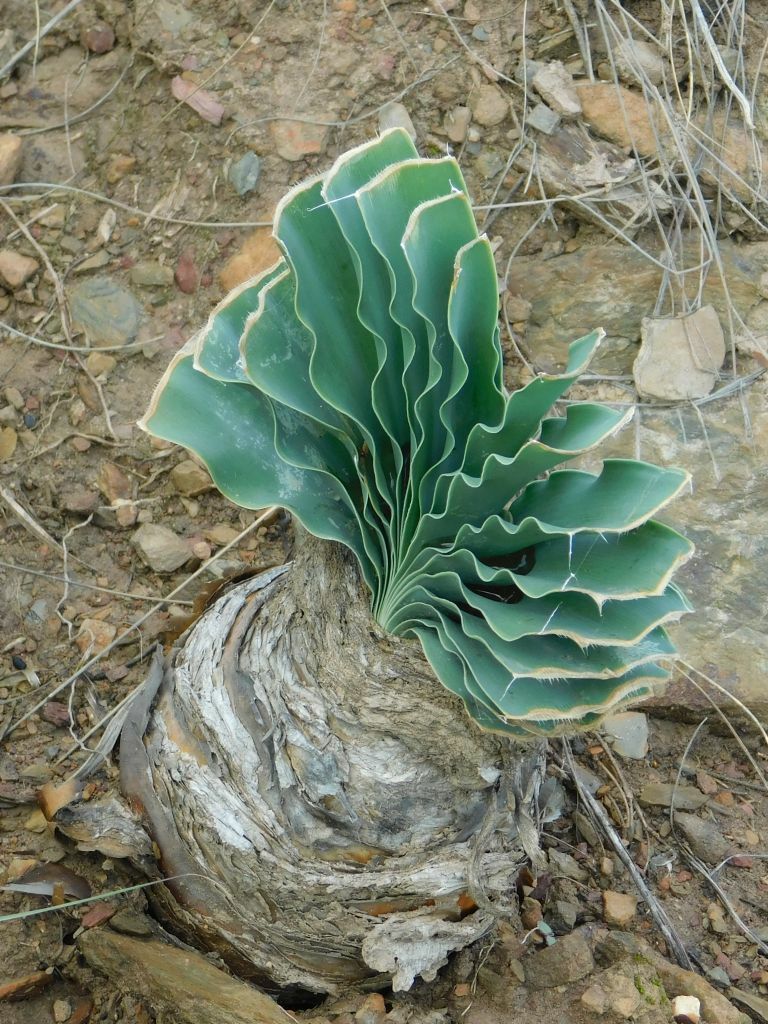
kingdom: Plantae
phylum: Tracheophyta
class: Liliopsida
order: Asparagales
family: Amaryllidaceae
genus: Boophone
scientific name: Boophone disticha
